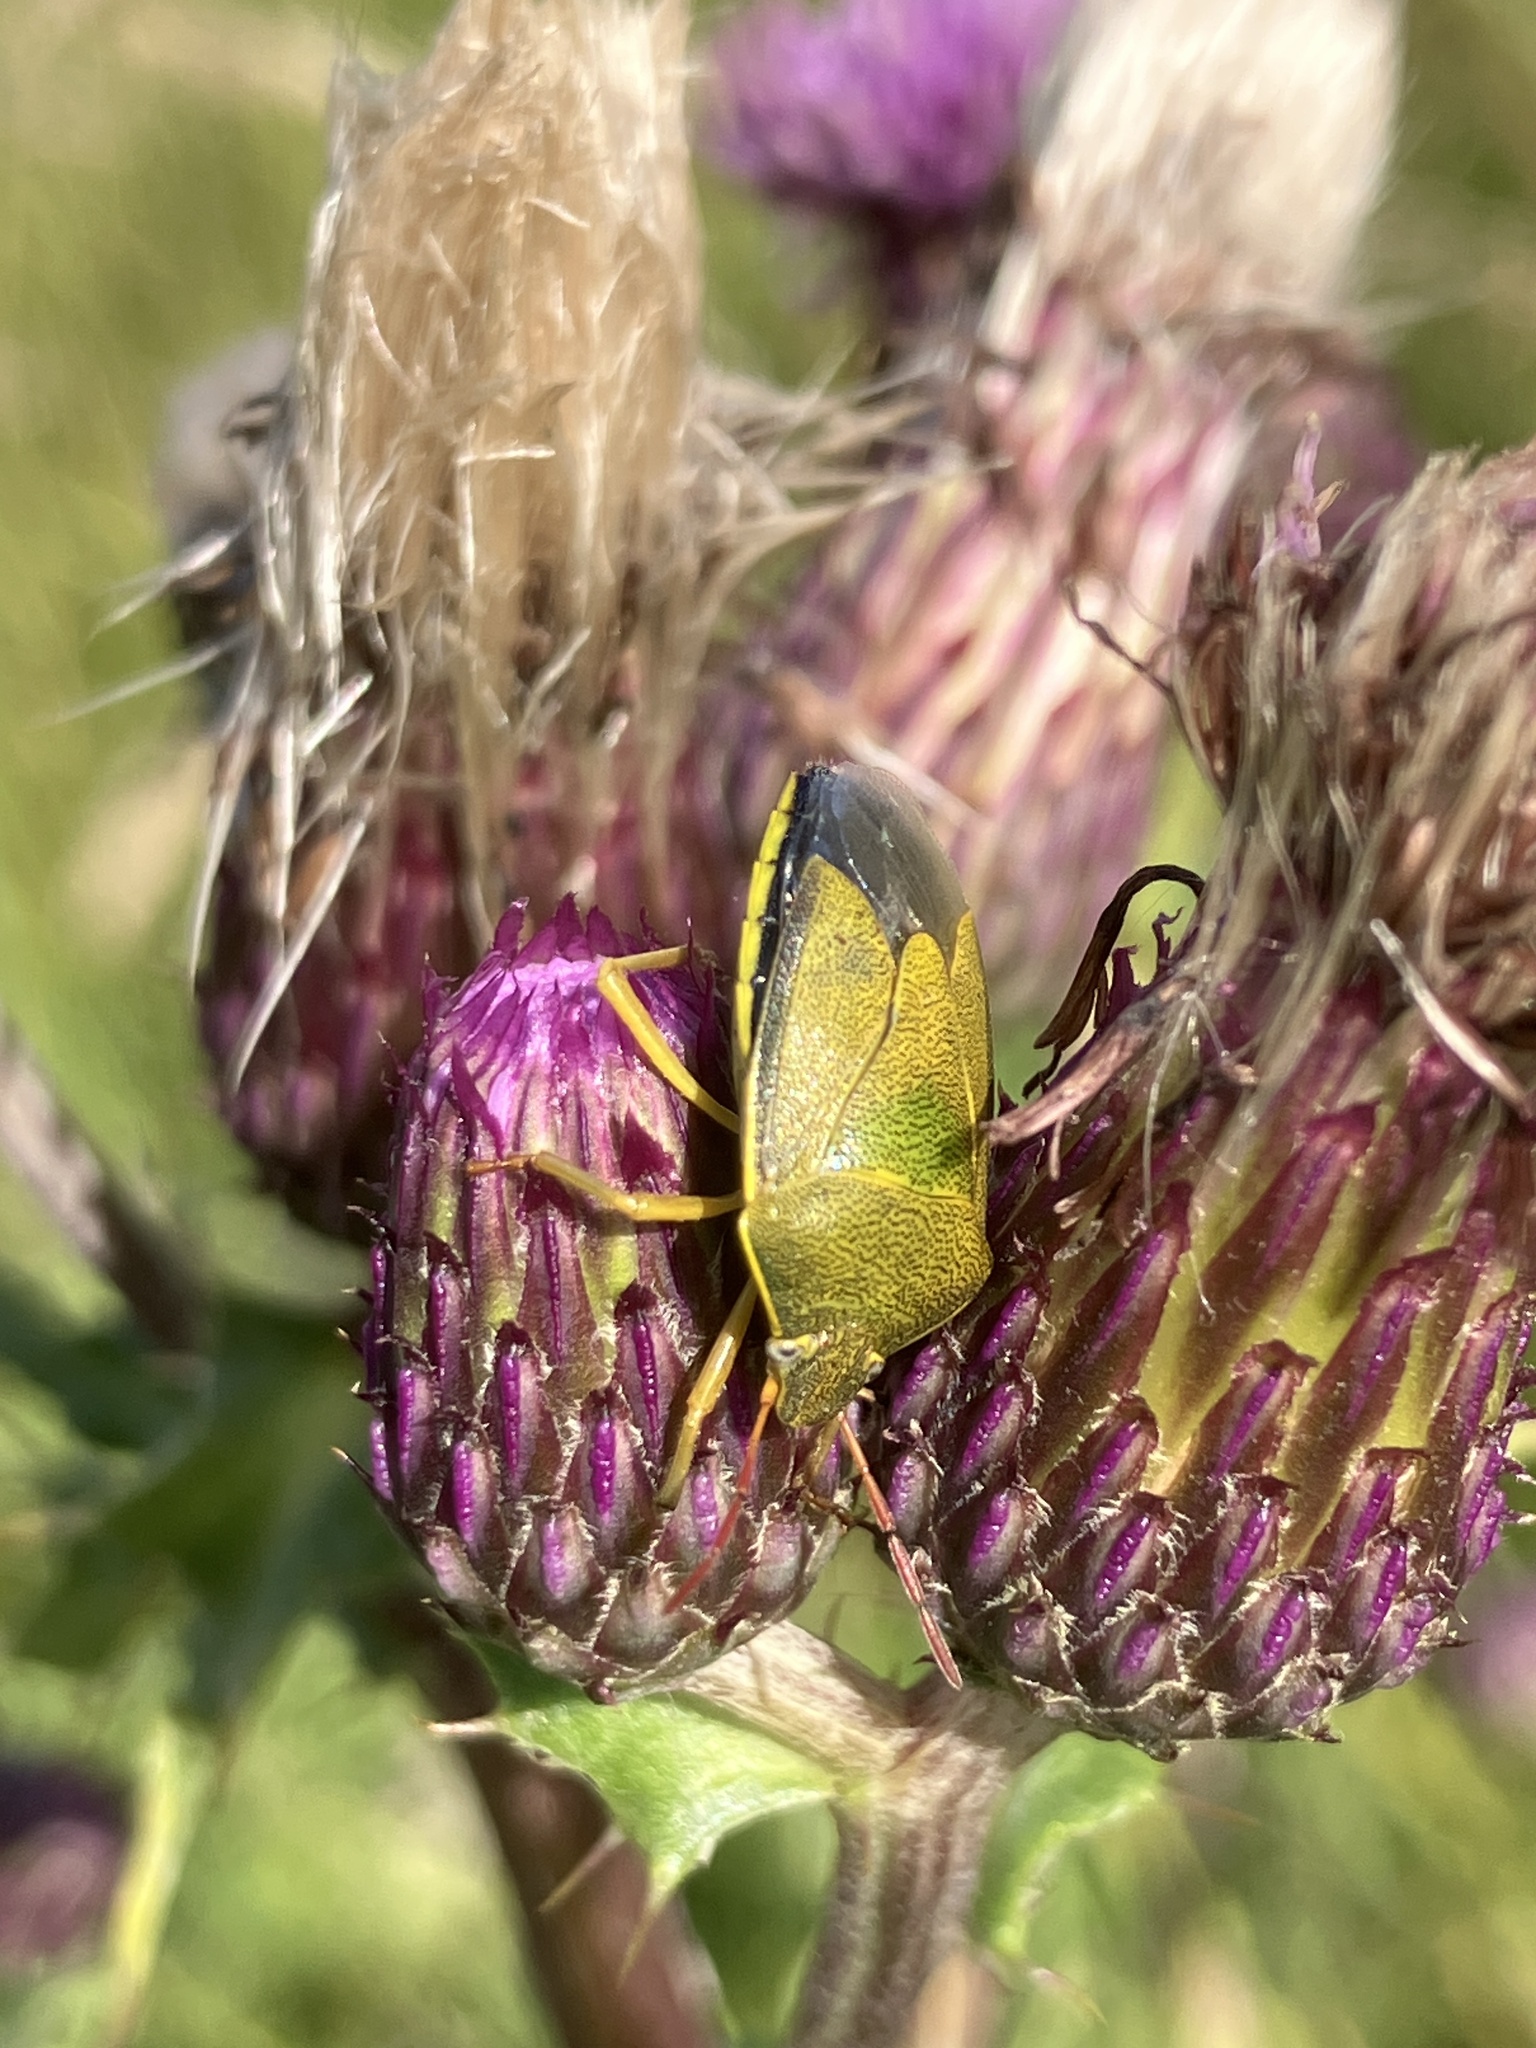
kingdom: Animalia
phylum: Arthropoda
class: Insecta
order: Hemiptera
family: Pentatomidae
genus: Piezodorus
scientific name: Piezodorus lituratus
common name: Stink bug
